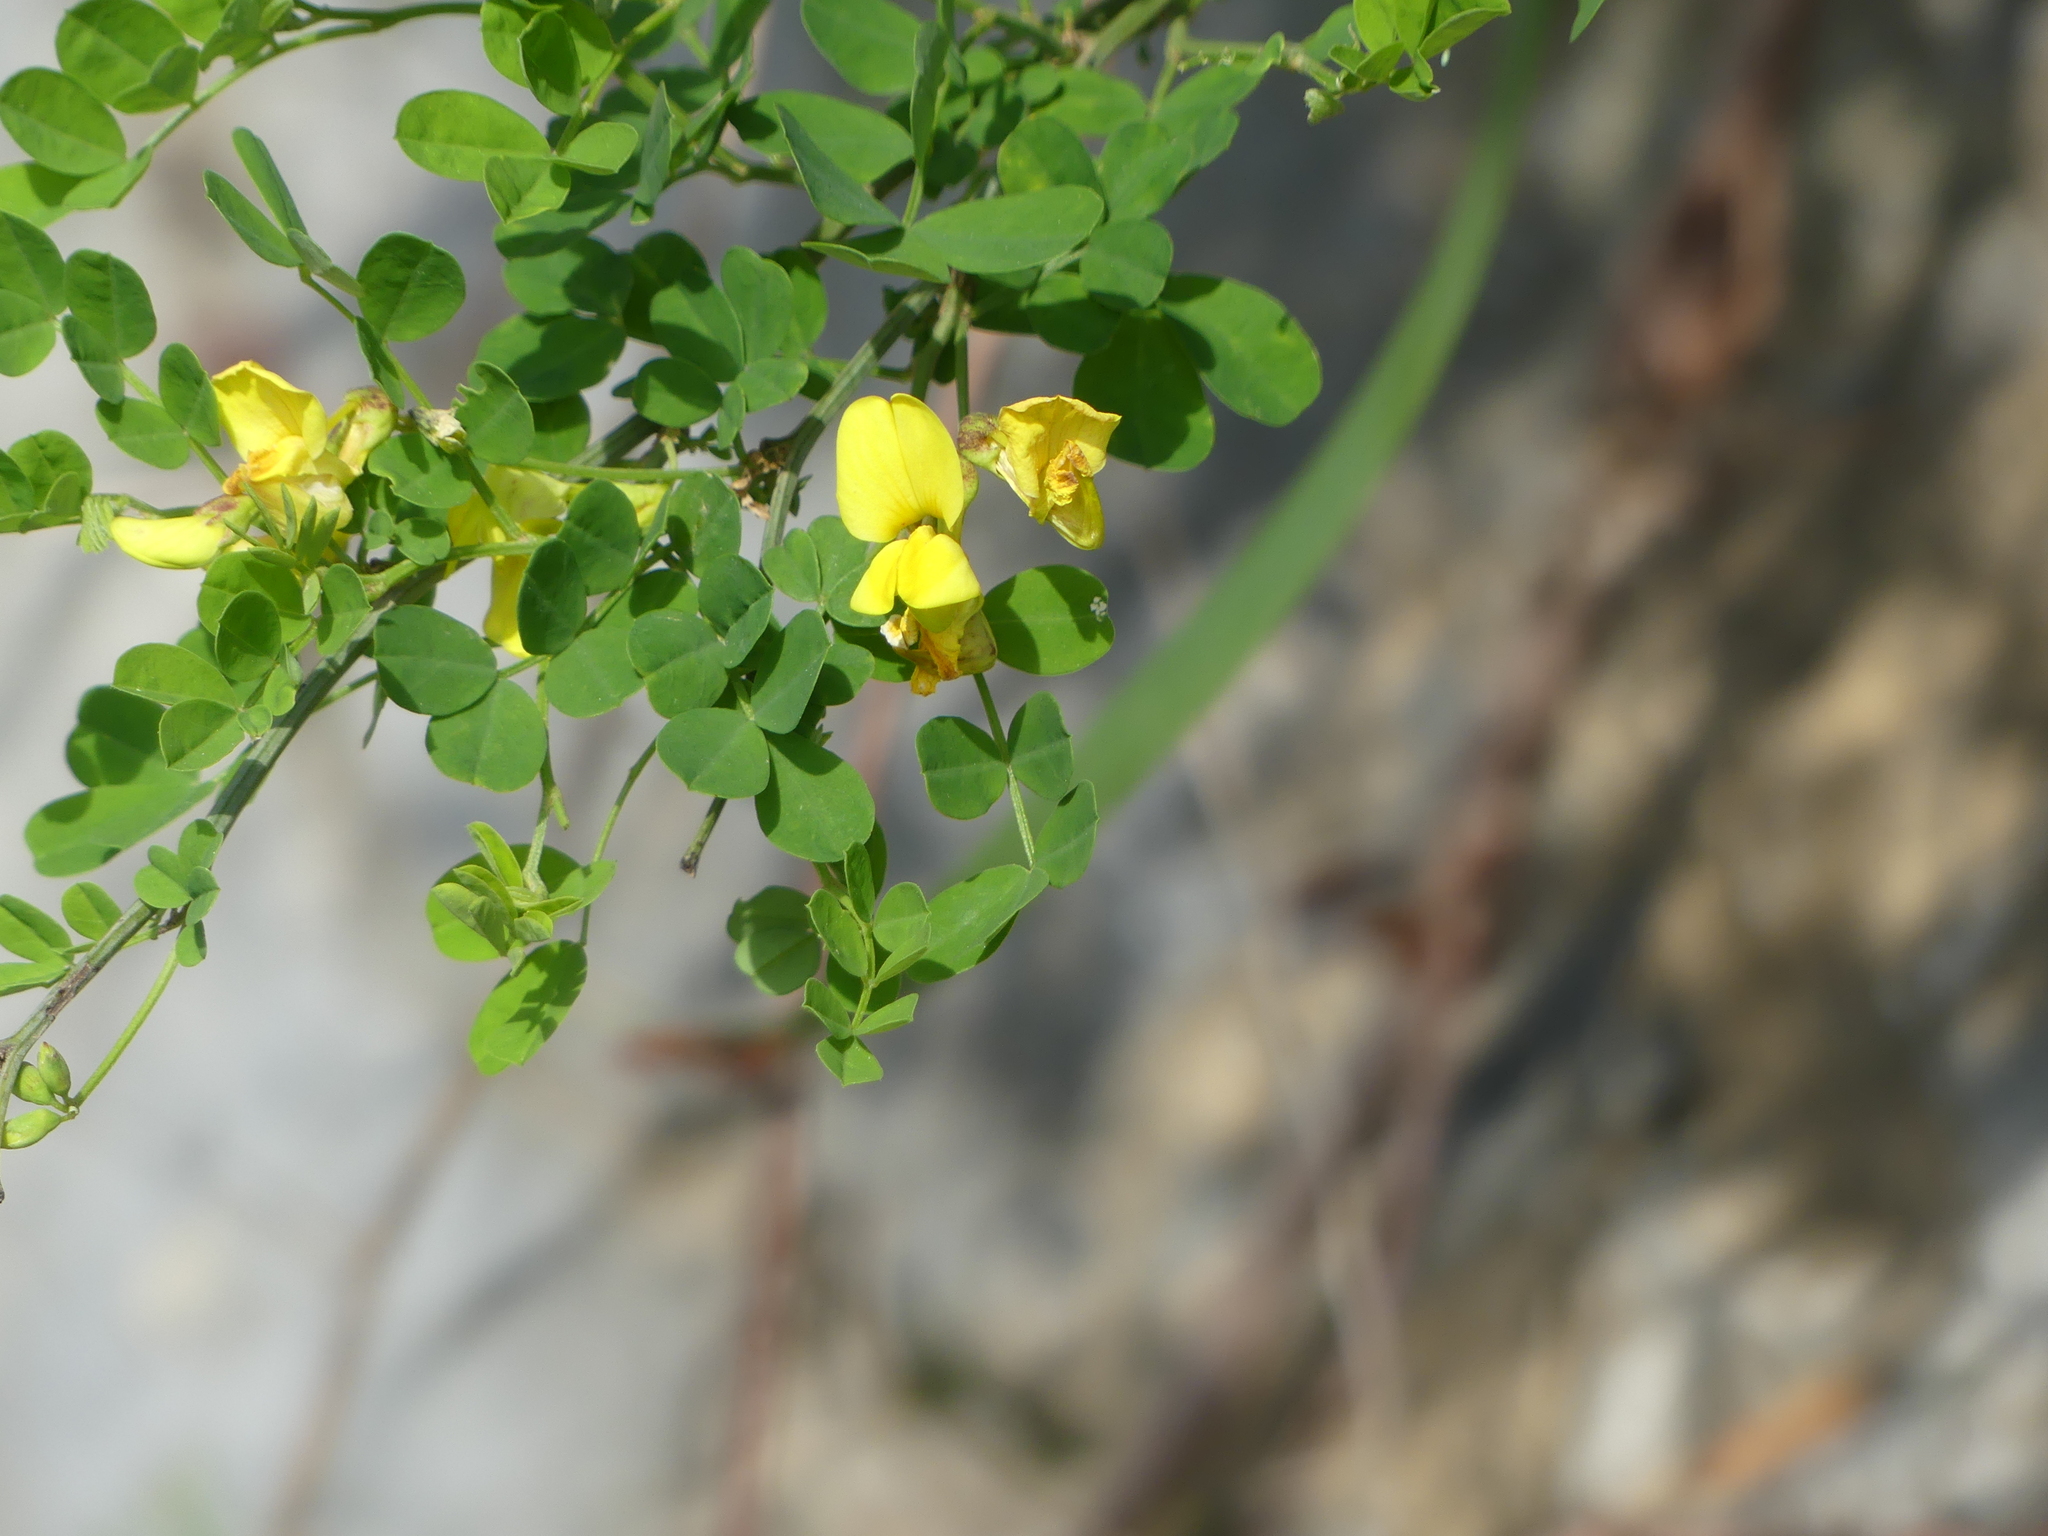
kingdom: Plantae
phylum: Tracheophyta
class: Magnoliopsida
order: Fabales
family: Fabaceae
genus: Hippocrepis
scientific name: Hippocrepis emerus
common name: Scorpion senna
